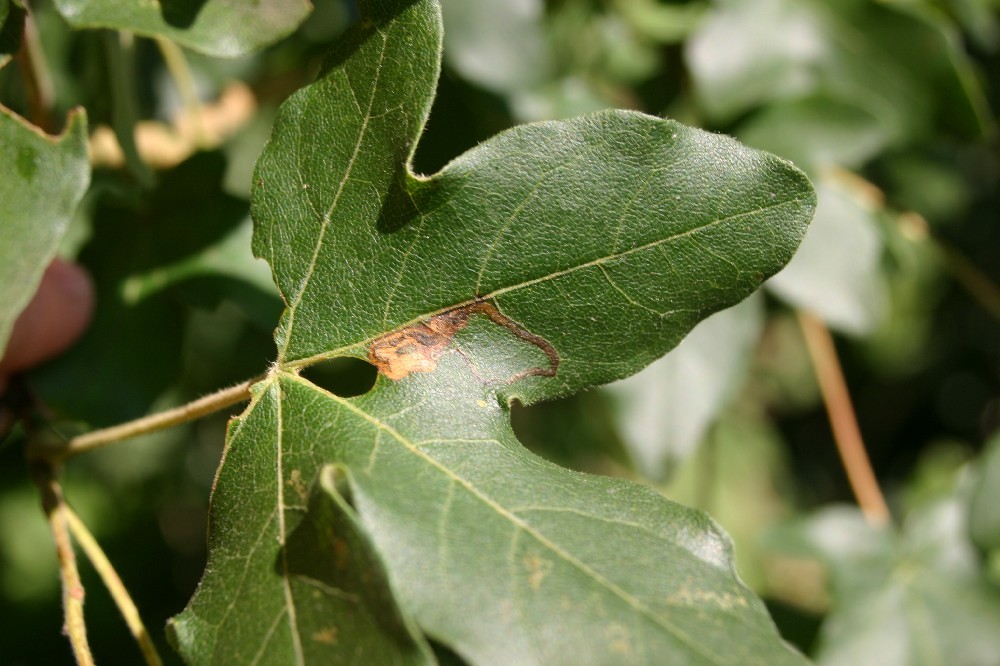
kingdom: Plantae
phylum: Tracheophyta
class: Magnoliopsida
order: Sapindales
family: Sapindaceae
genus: Acer
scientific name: Acer campestre
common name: Field maple
